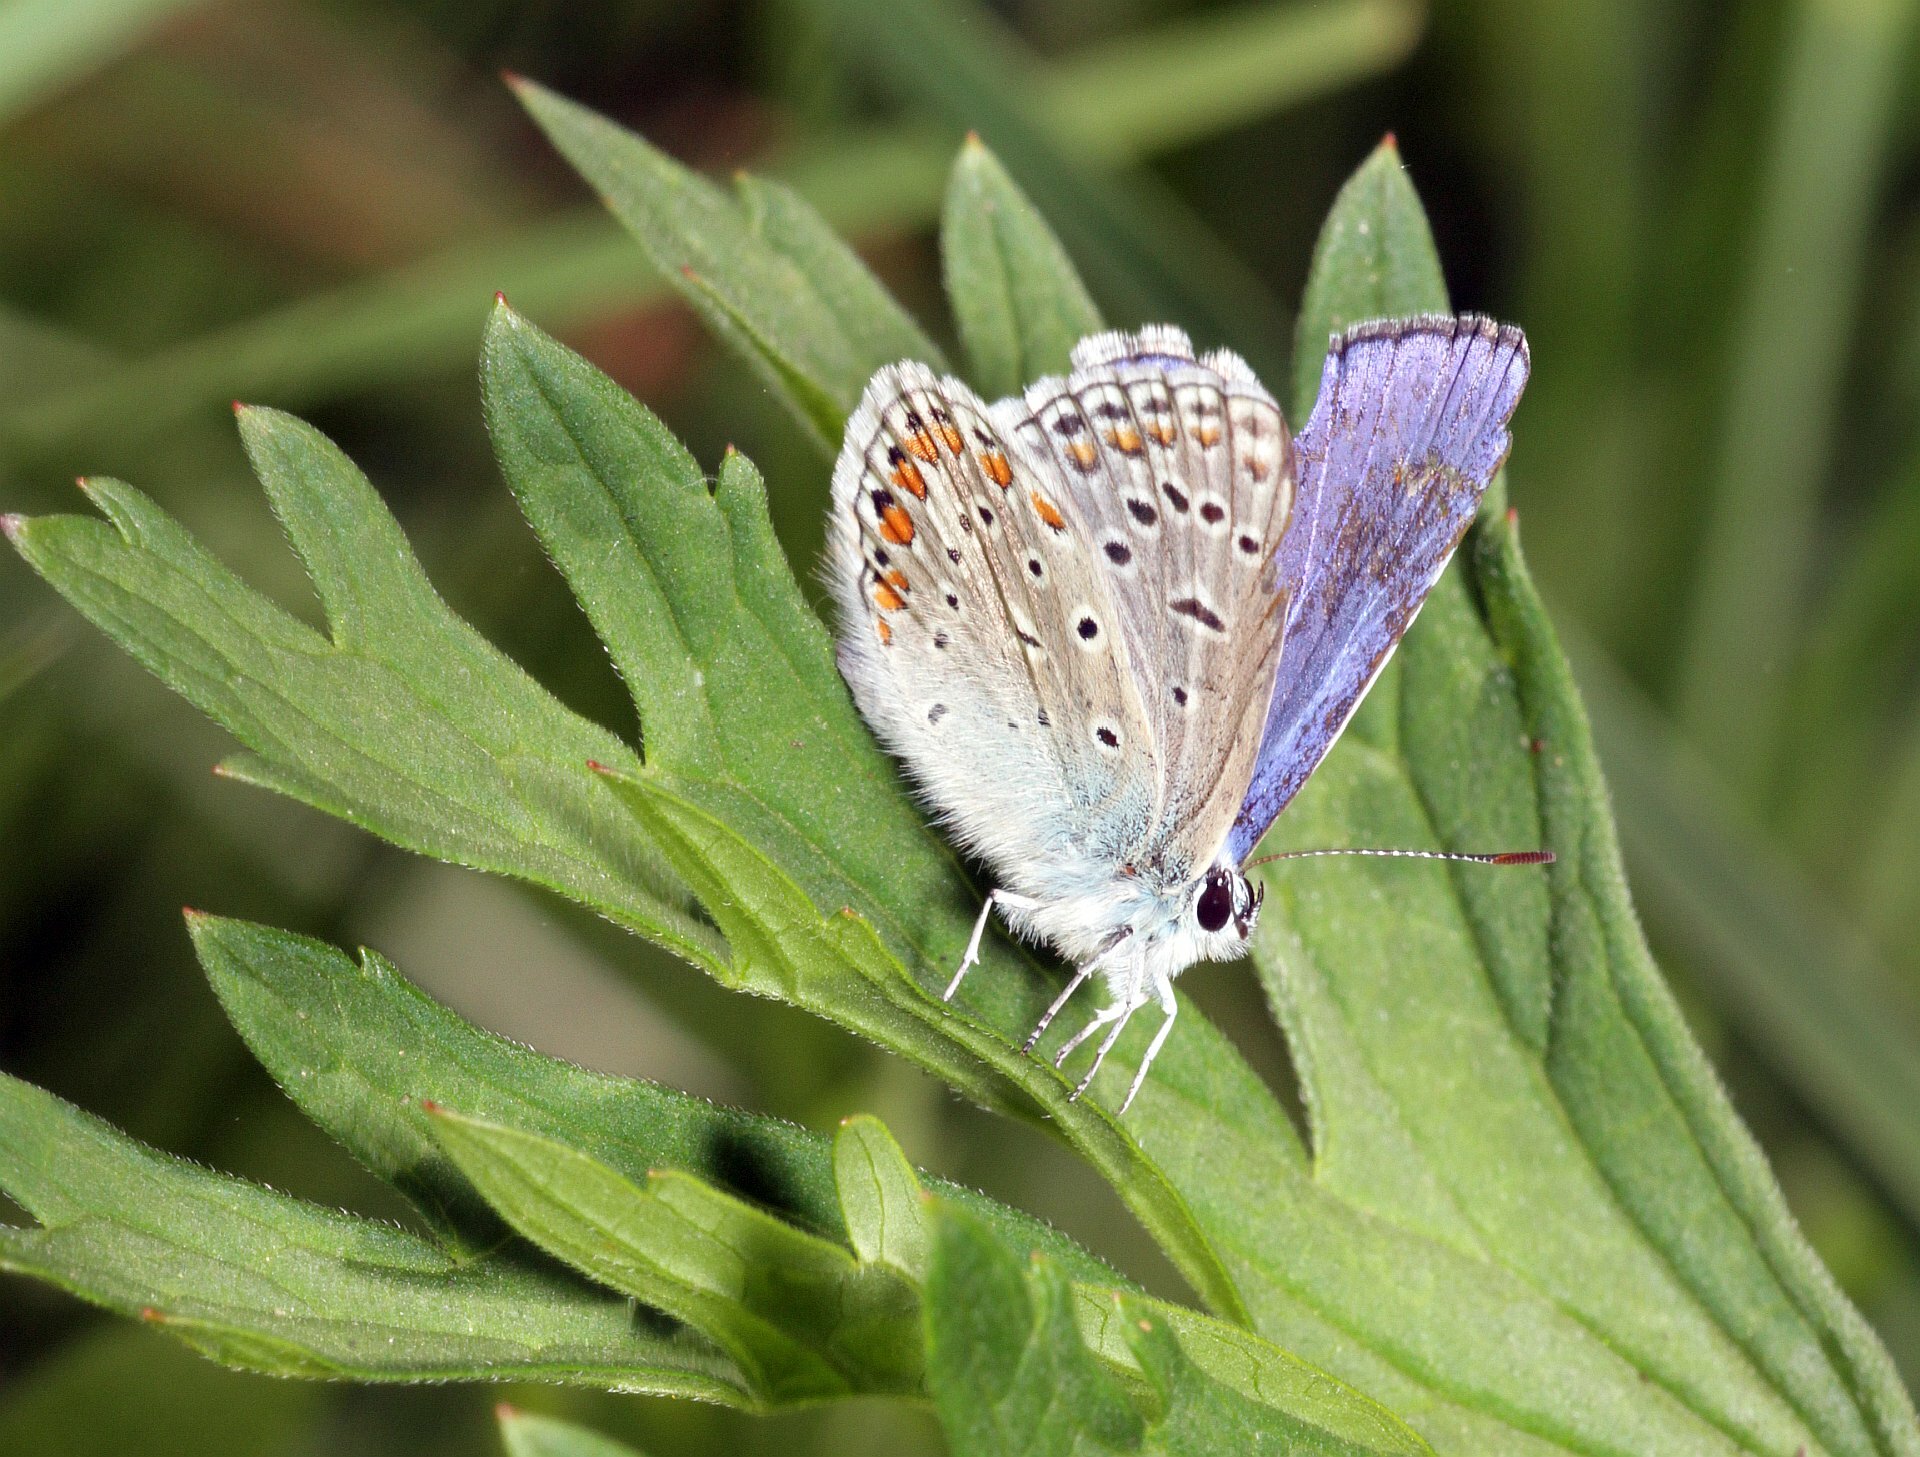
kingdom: Animalia
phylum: Arthropoda
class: Insecta
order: Lepidoptera
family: Lycaenidae
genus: Polyommatus
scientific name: Polyommatus icarus
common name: Common blue
